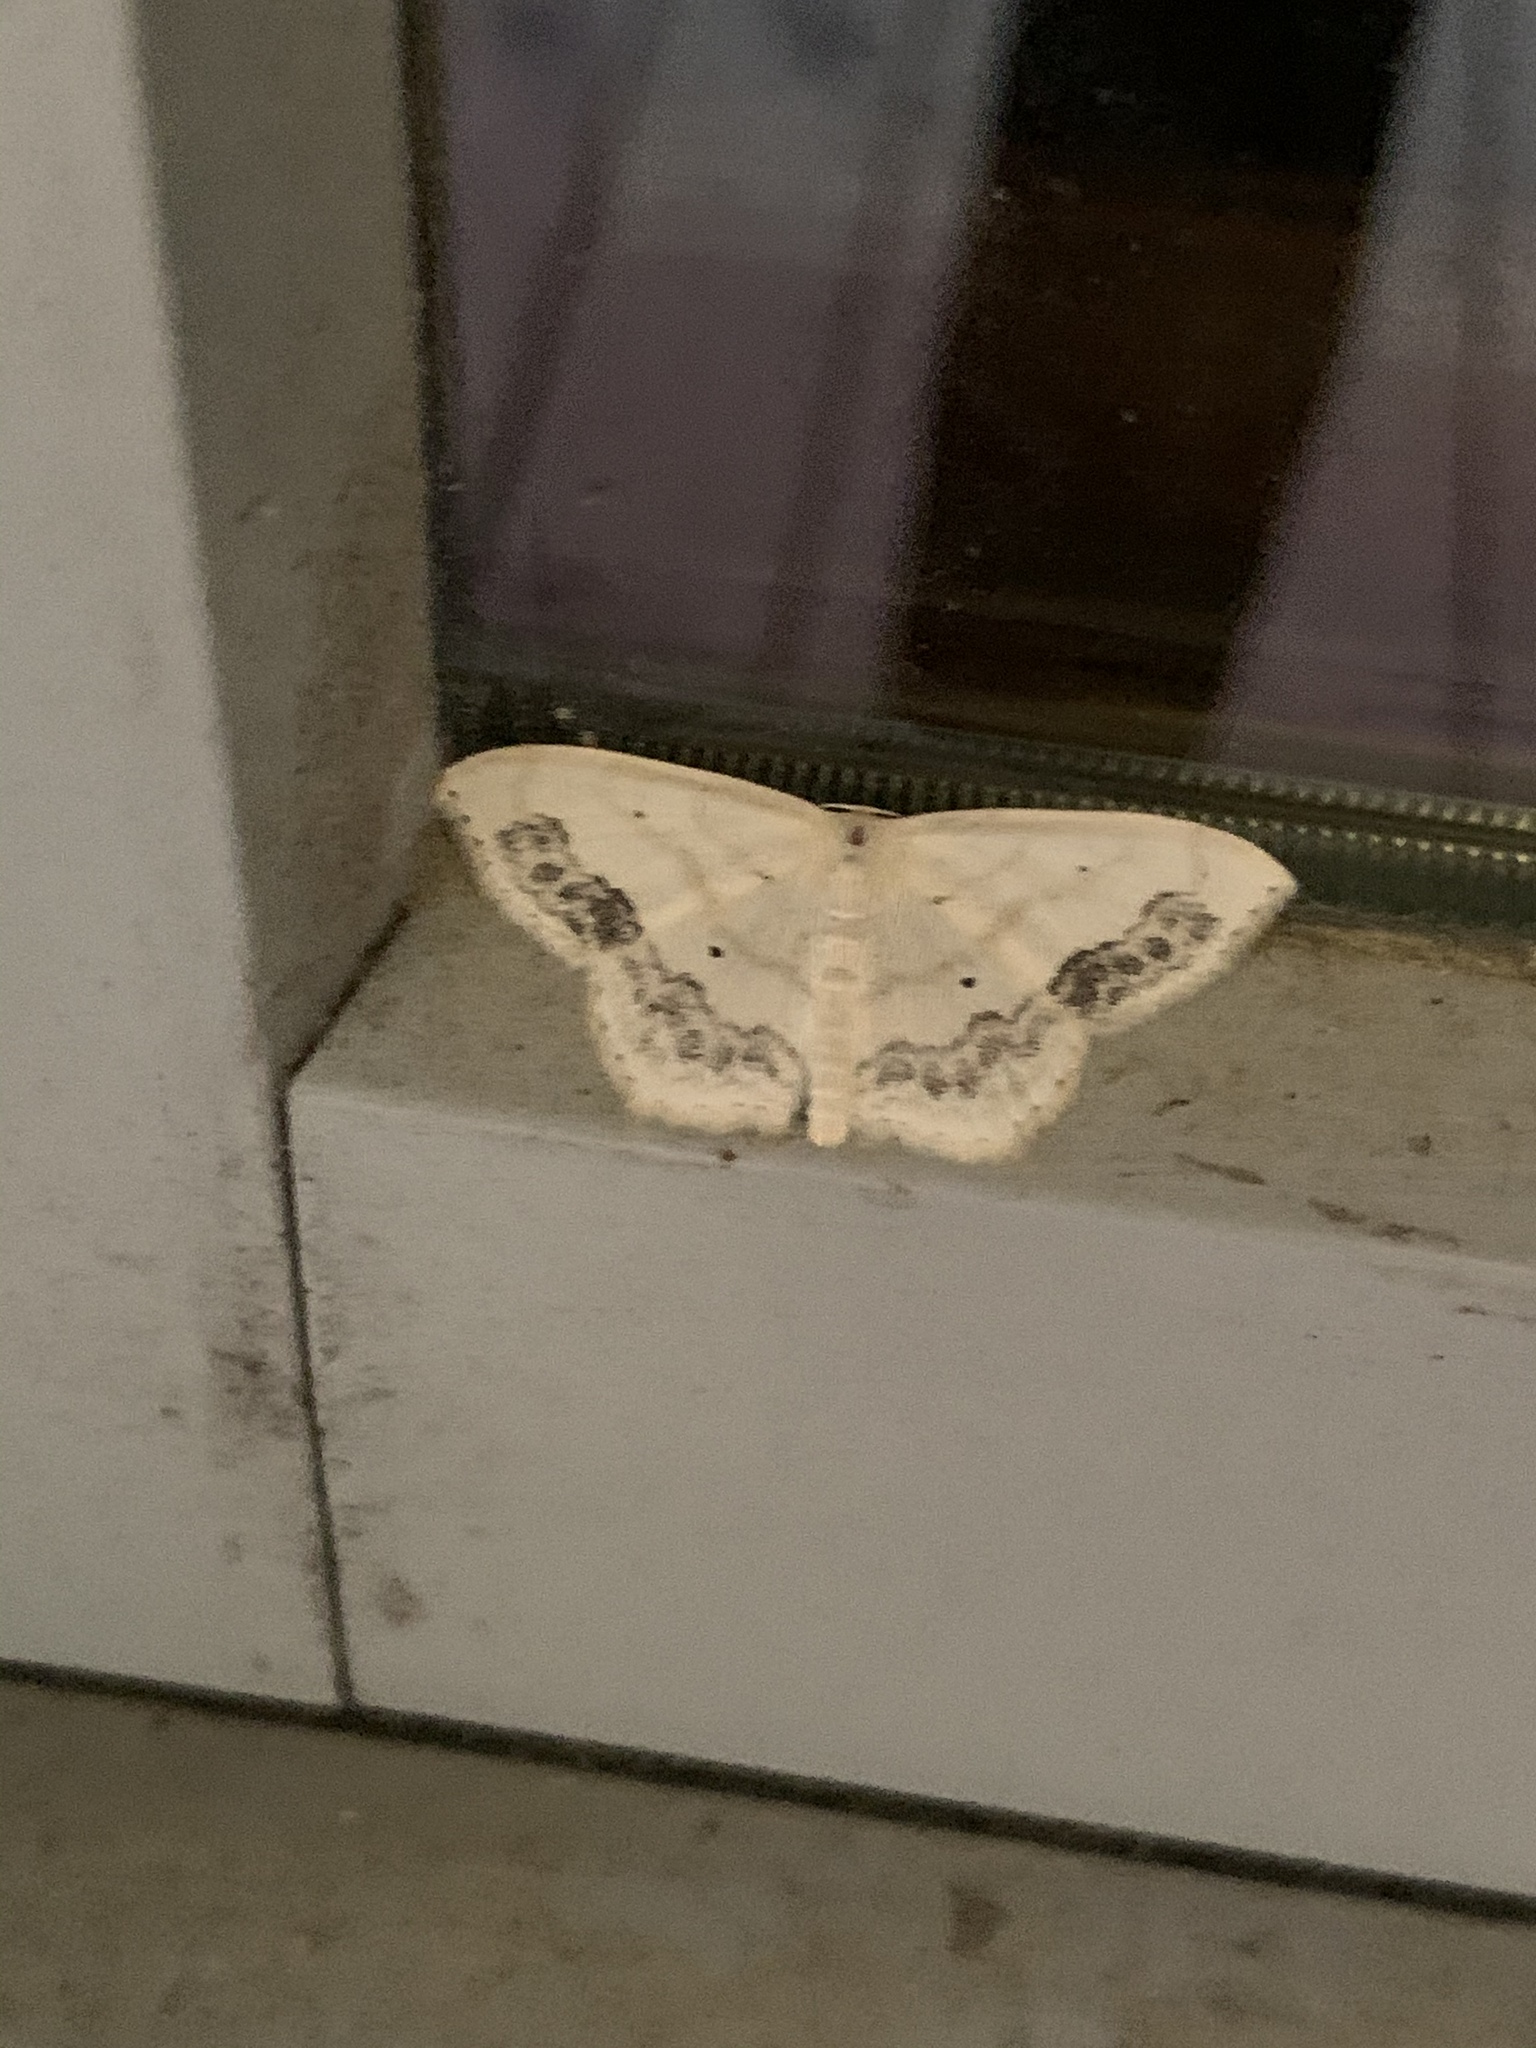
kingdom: Animalia
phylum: Arthropoda
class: Insecta
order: Lepidoptera
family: Geometridae
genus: Scopula
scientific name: Scopula limboundata
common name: Large lace border
